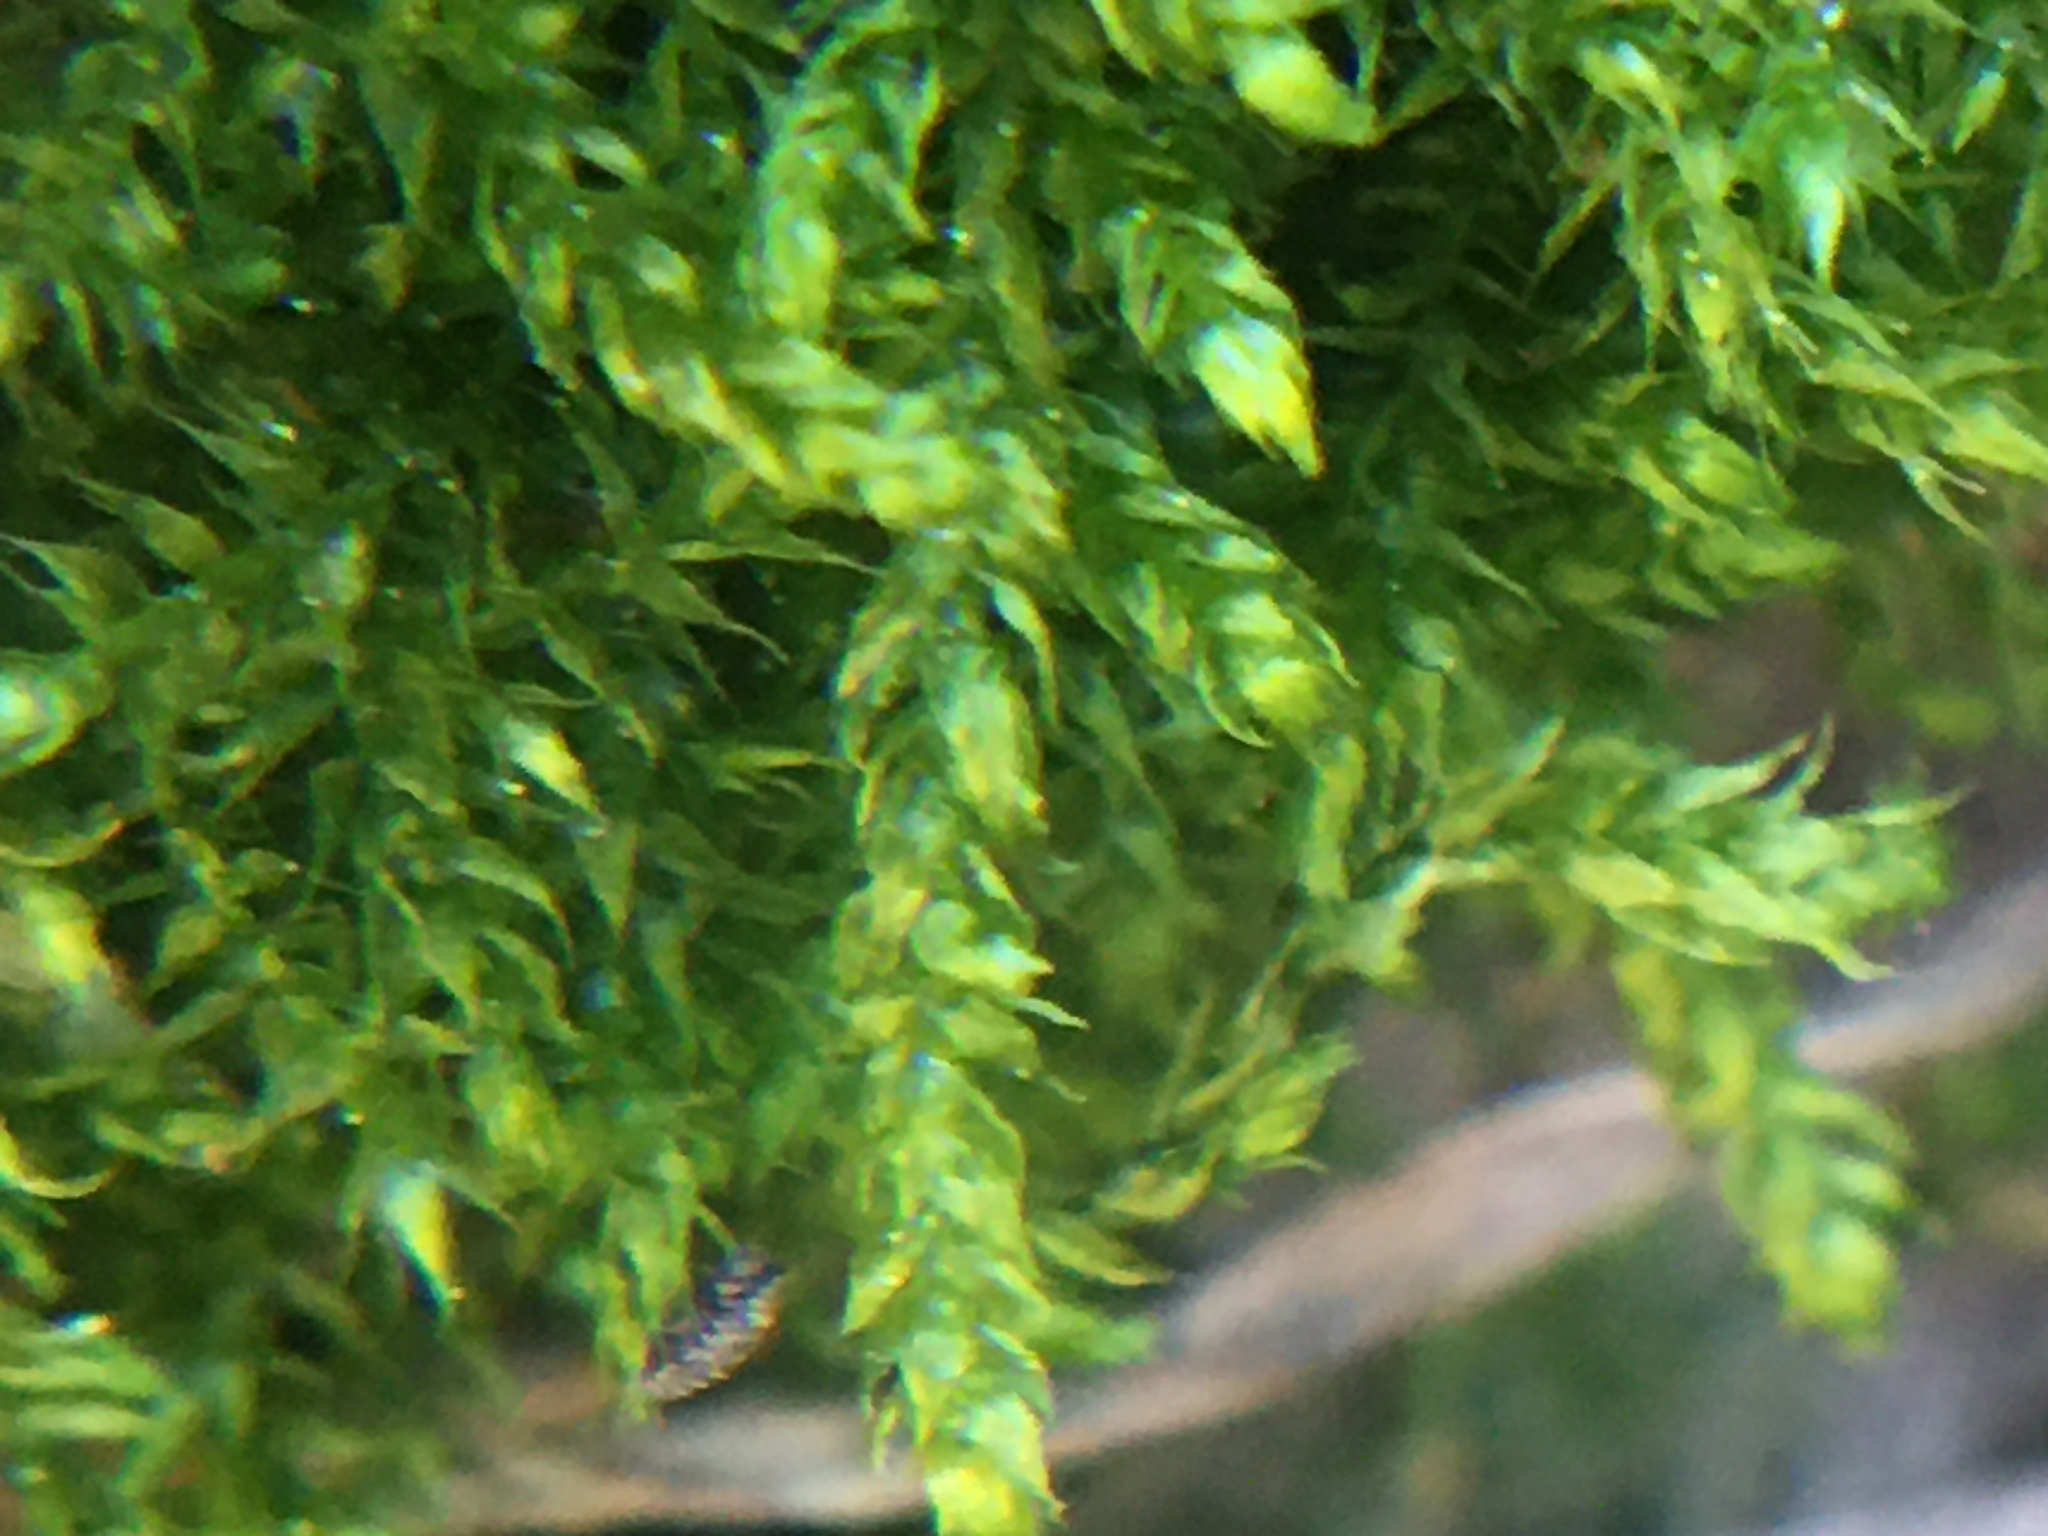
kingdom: Plantae
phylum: Bryophyta
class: Bryopsida
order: Hypnales
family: Brachytheciaceae
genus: Rhynchostegium
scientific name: Rhynchostegium confertum
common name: Clustered feather-moss
